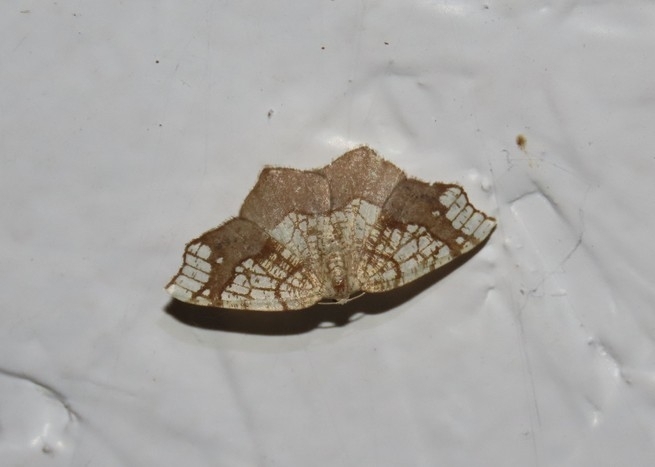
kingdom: Animalia
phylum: Arthropoda
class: Insecta
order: Lepidoptera
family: Geometridae
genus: Nematocampa
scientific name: Nematocampa resistaria
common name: Horned spanworm moth
